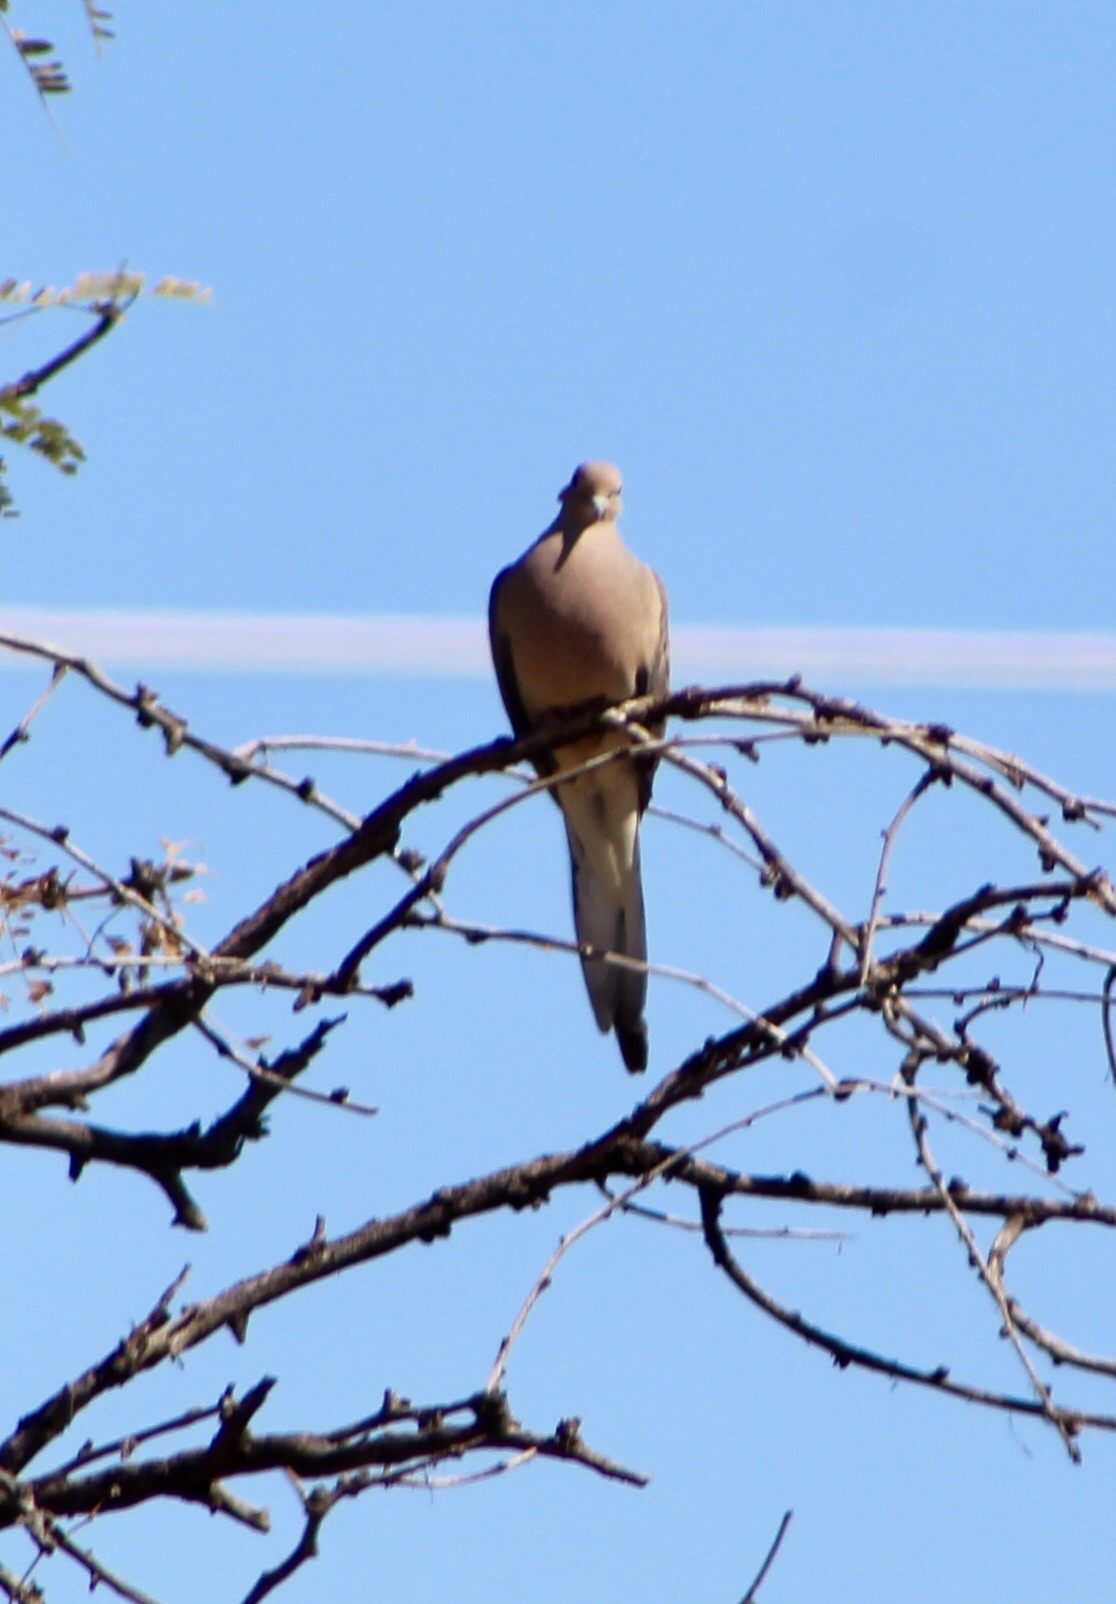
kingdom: Animalia
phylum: Chordata
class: Aves
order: Columbiformes
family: Columbidae
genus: Zenaida
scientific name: Zenaida macroura
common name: Mourning dove
